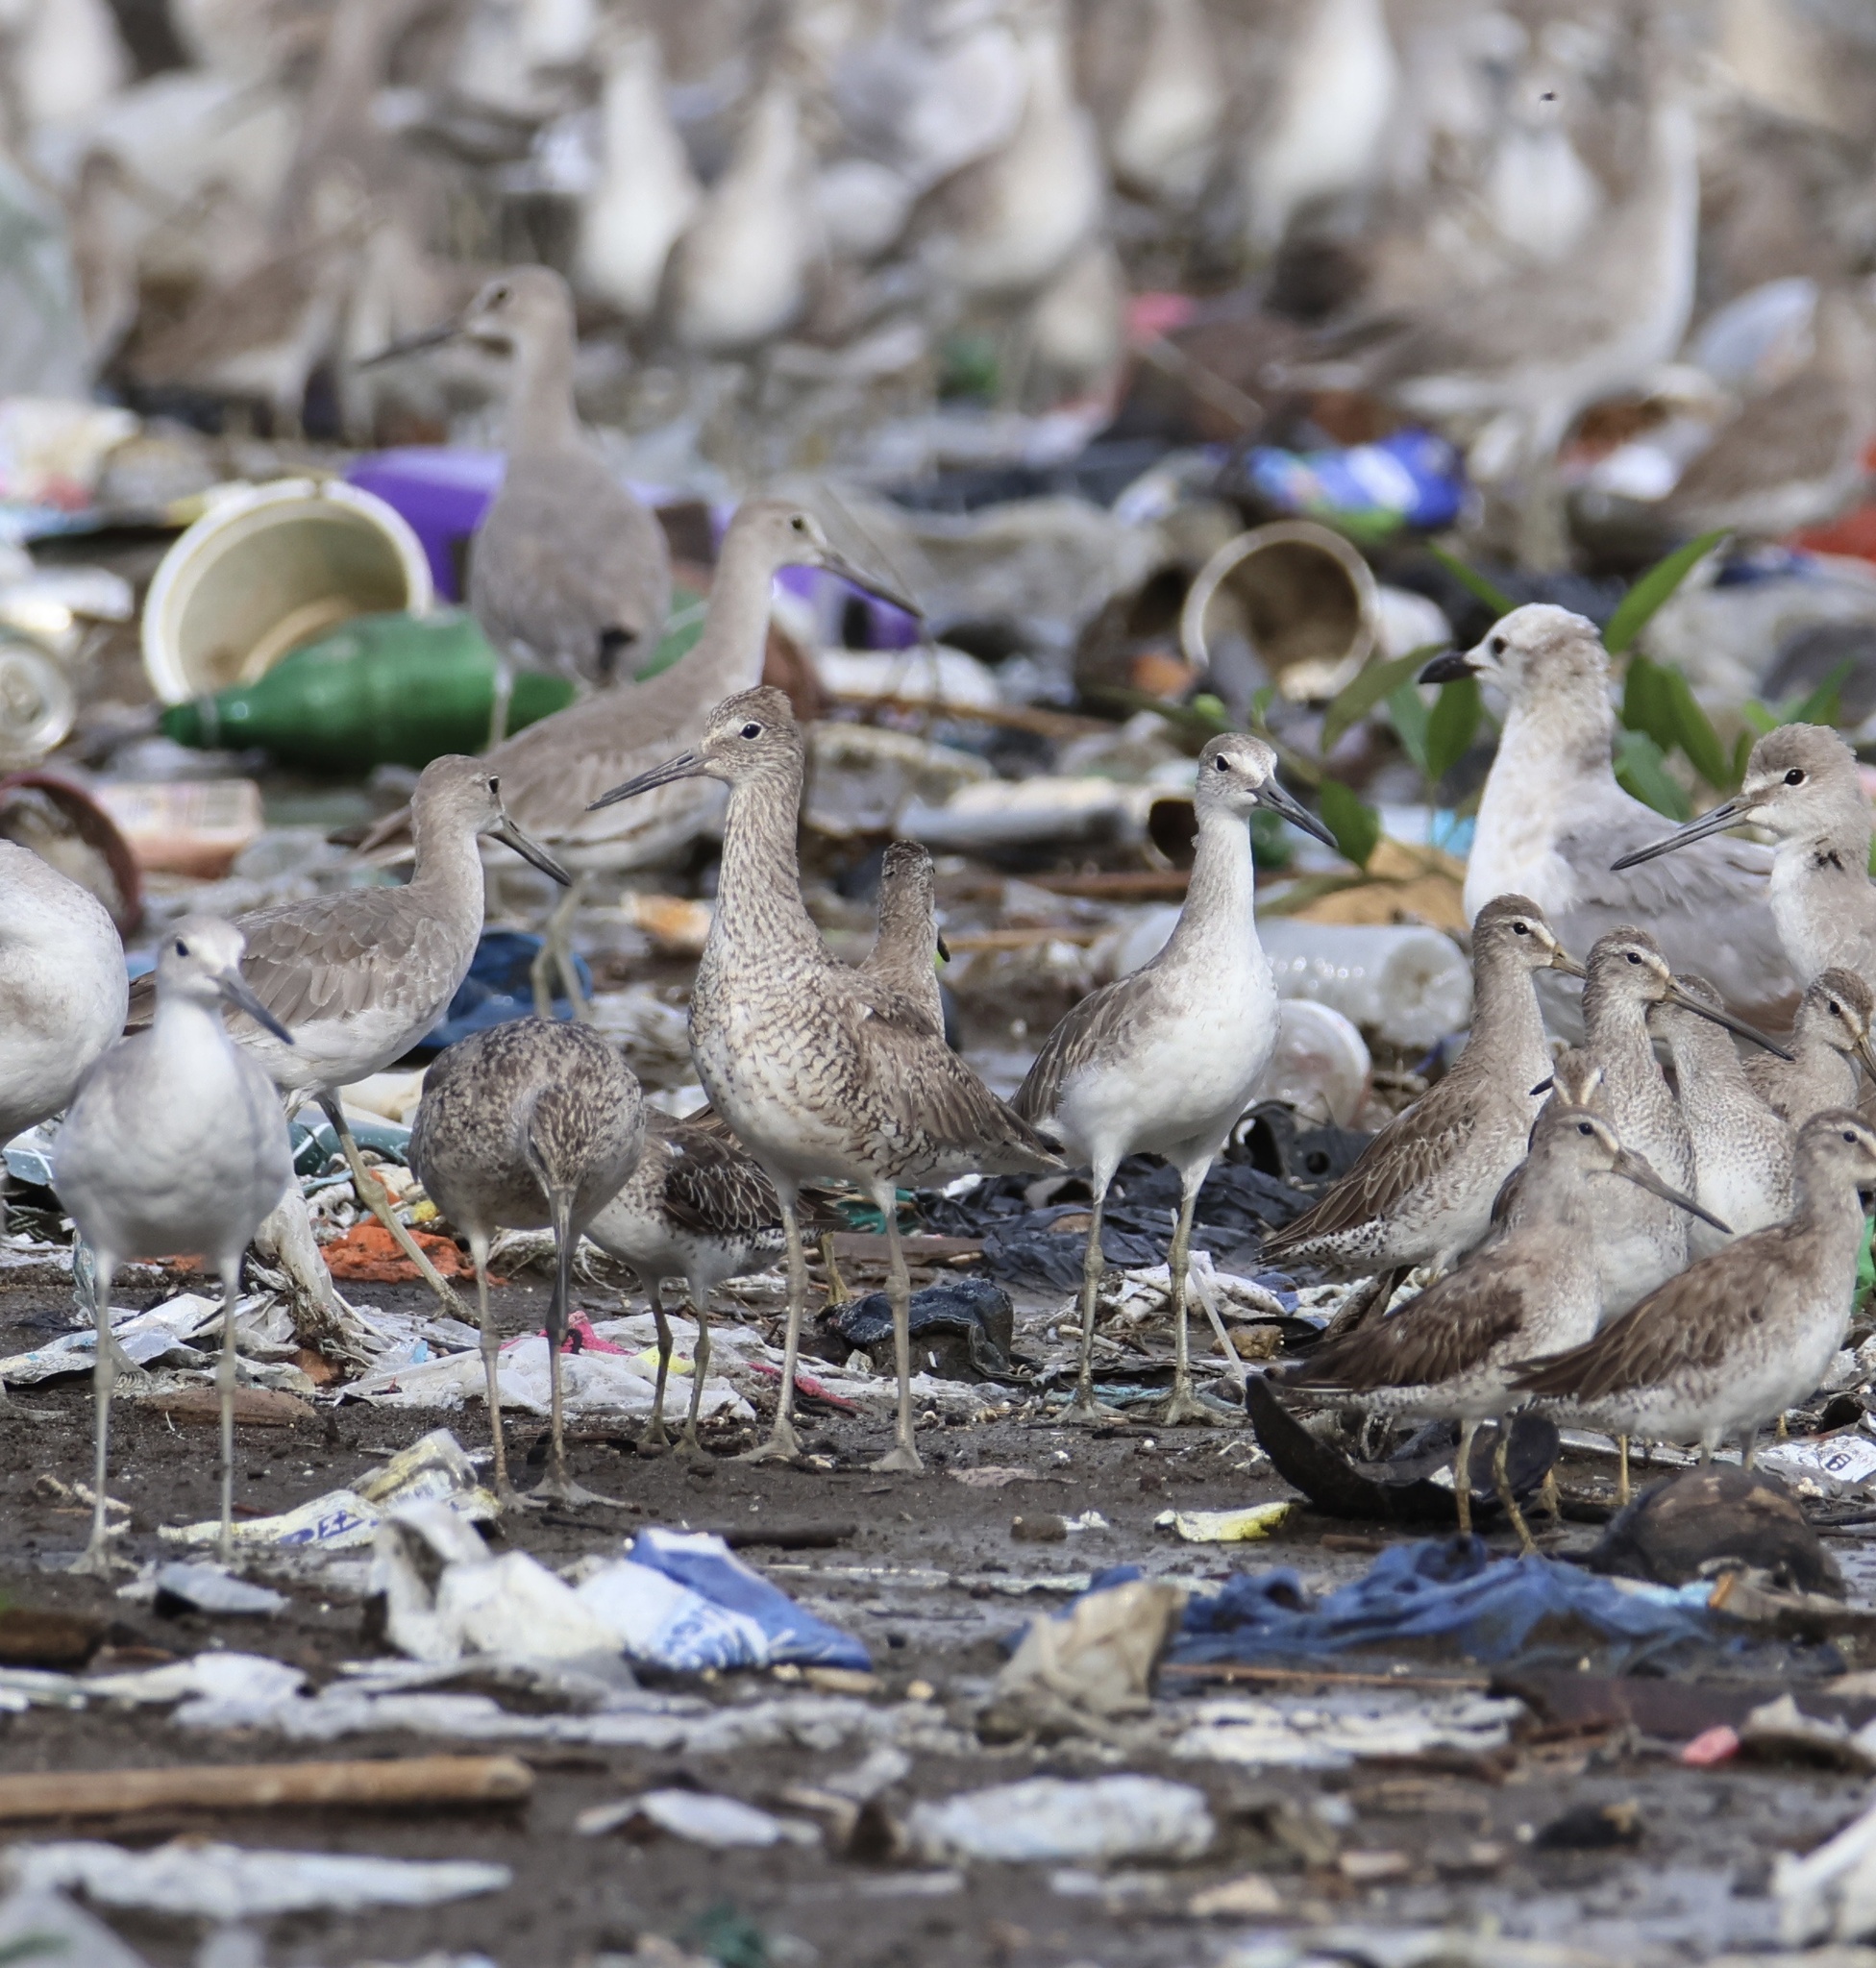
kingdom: Animalia
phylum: Chordata
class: Aves
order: Charadriiformes
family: Scolopacidae
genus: Tringa
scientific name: Tringa semipalmata
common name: Willet
